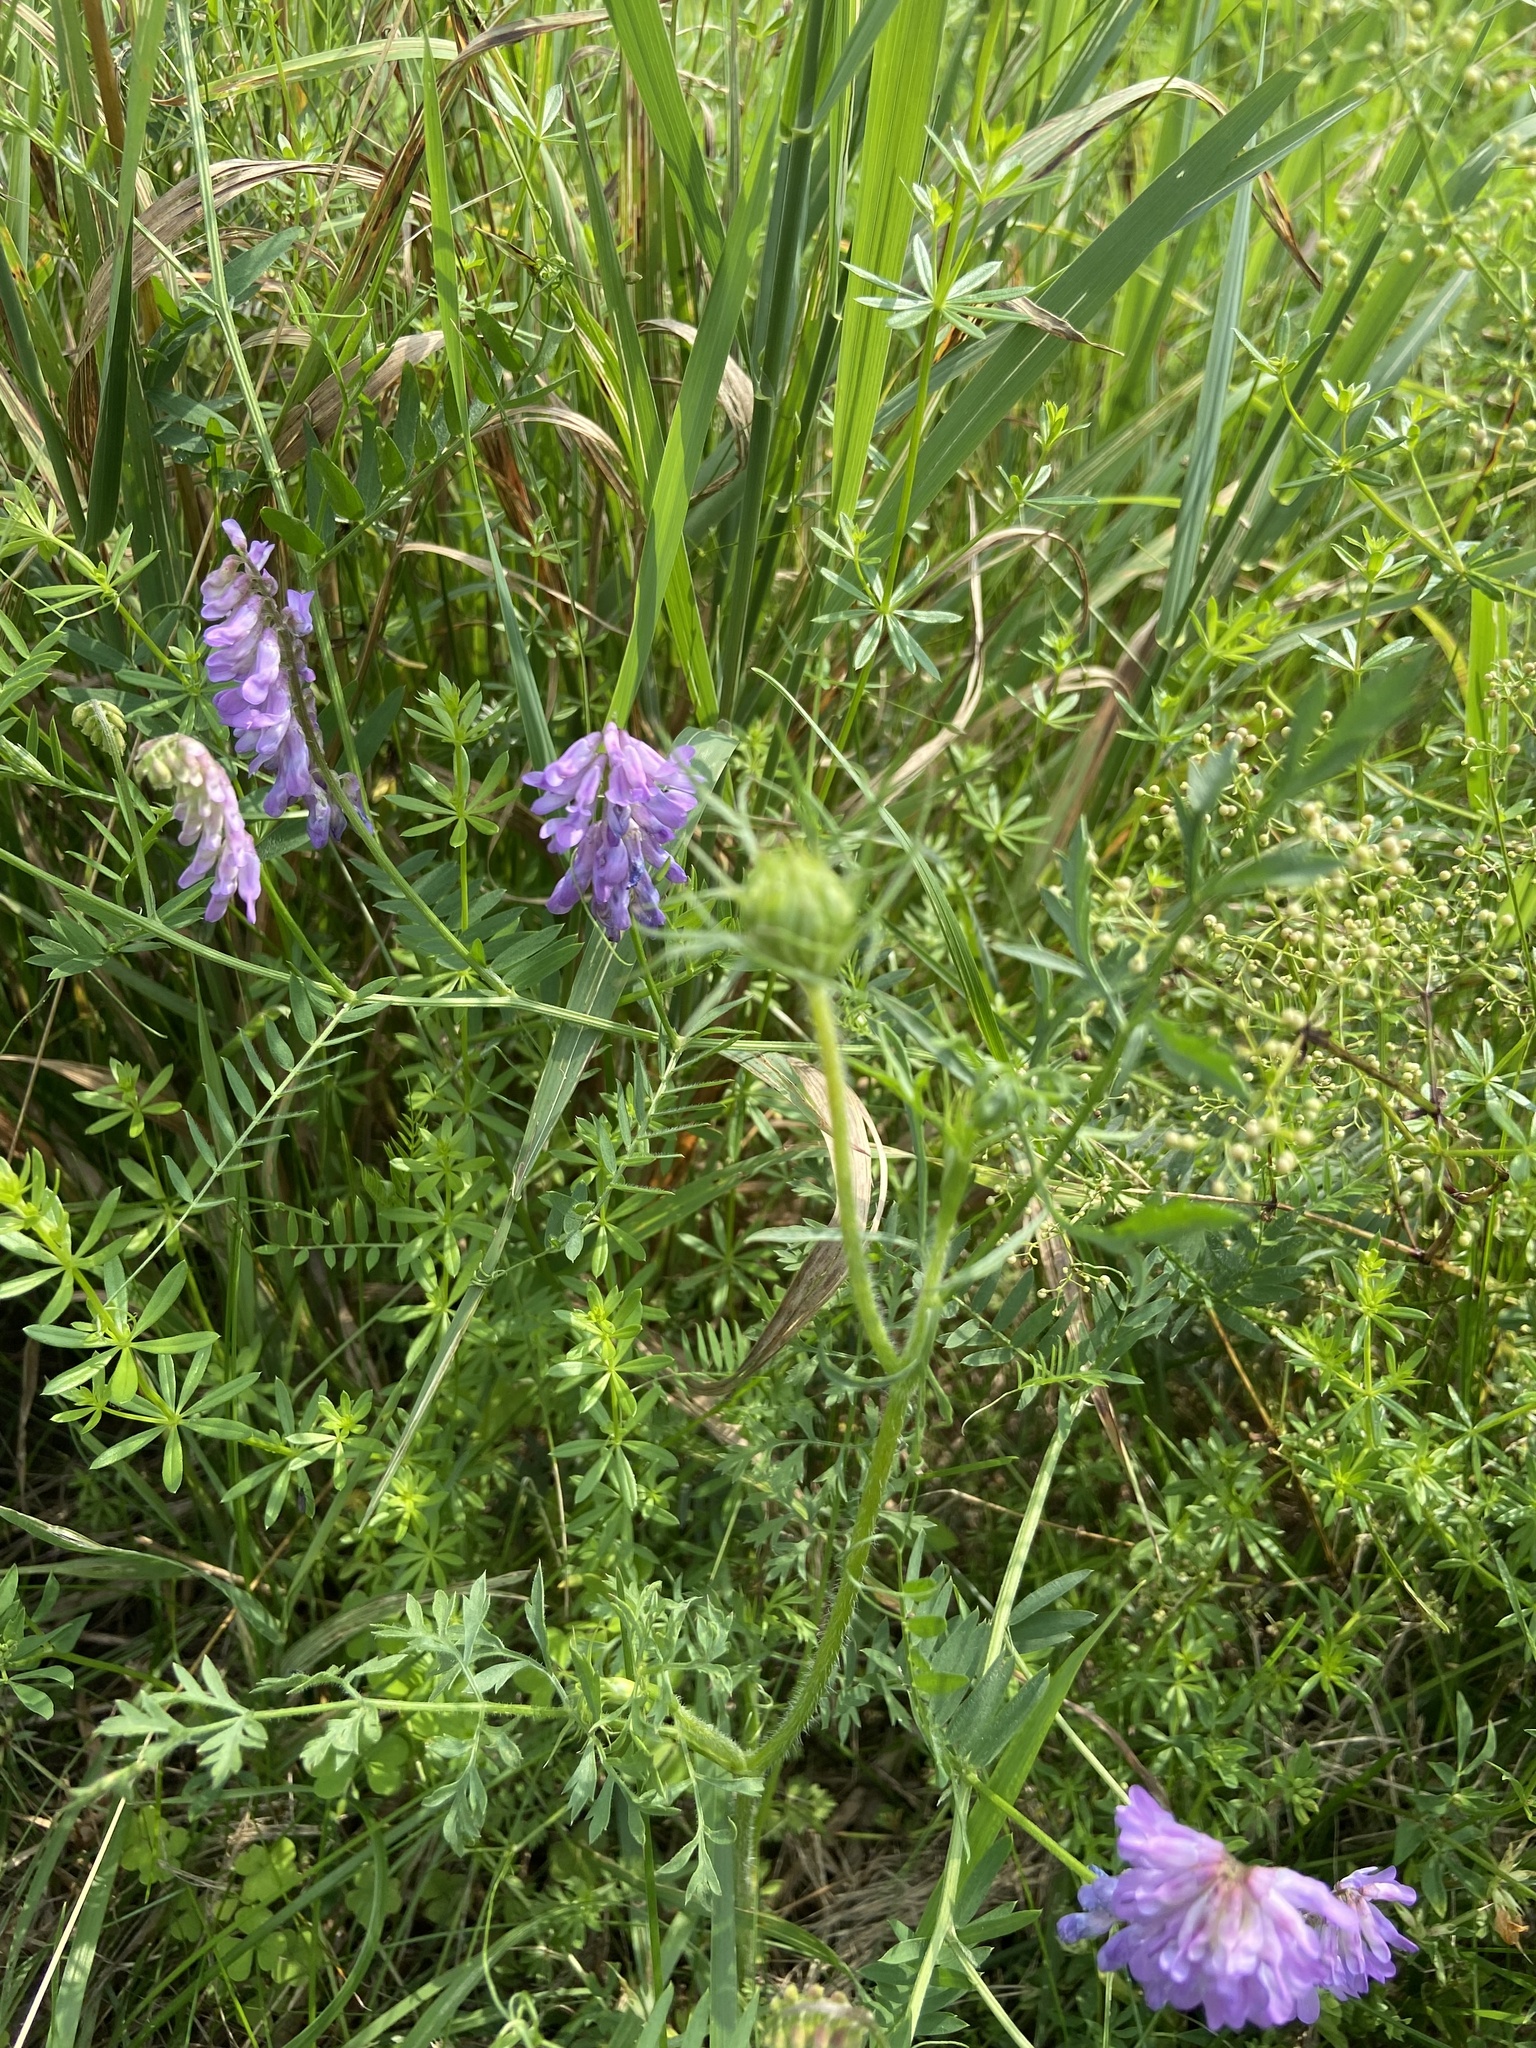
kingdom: Plantae
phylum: Tracheophyta
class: Magnoliopsida
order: Fabales
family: Fabaceae
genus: Vicia
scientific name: Vicia cracca
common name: Bird vetch
